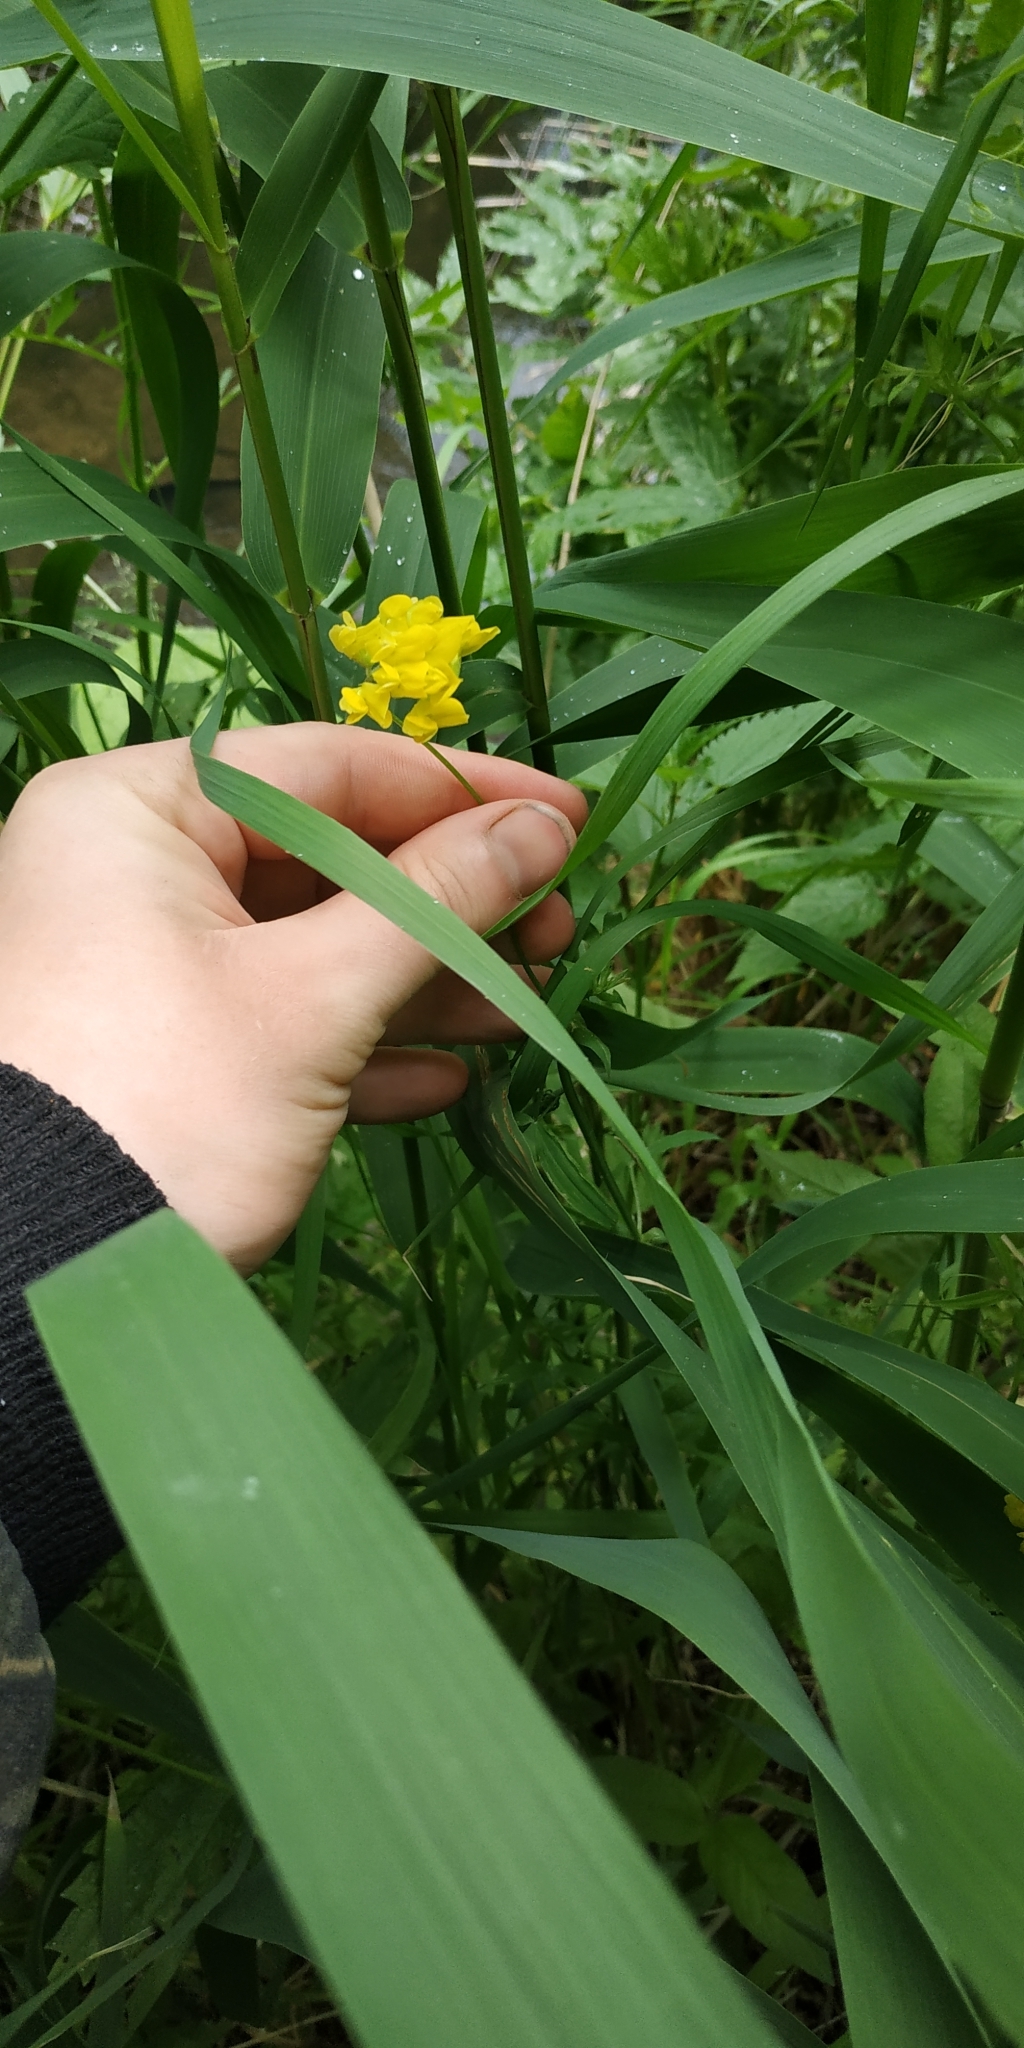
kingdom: Plantae
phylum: Tracheophyta
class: Magnoliopsida
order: Fabales
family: Fabaceae
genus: Lathyrus
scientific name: Lathyrus pratensis
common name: Meadow vetchling
